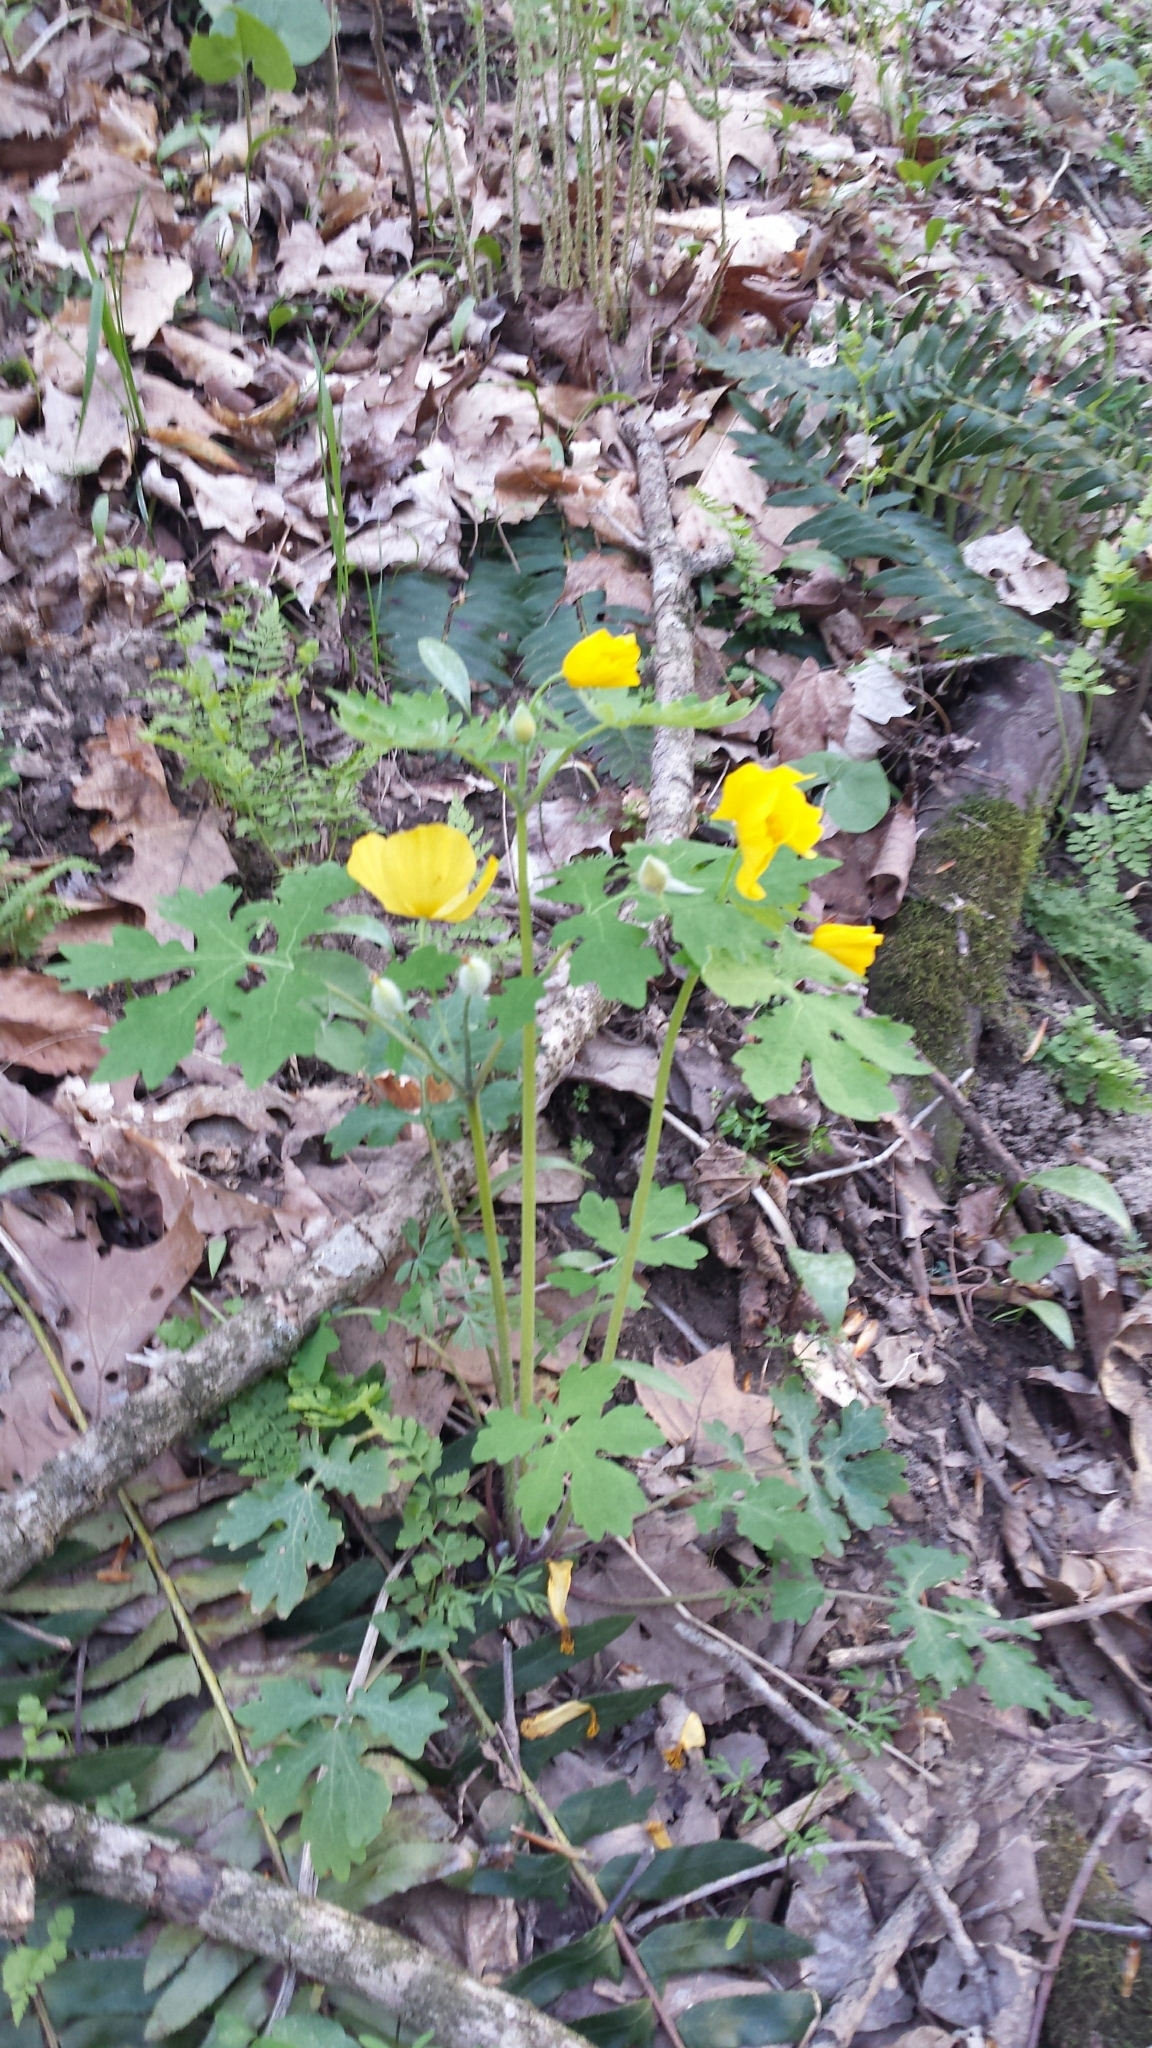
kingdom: Plantae
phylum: Tracheophyta
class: Magnoliopsida
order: Ranunculales
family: Papaveraceae
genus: Stylophorum
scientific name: Stylophorum diphyllum
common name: Celandine poppy
